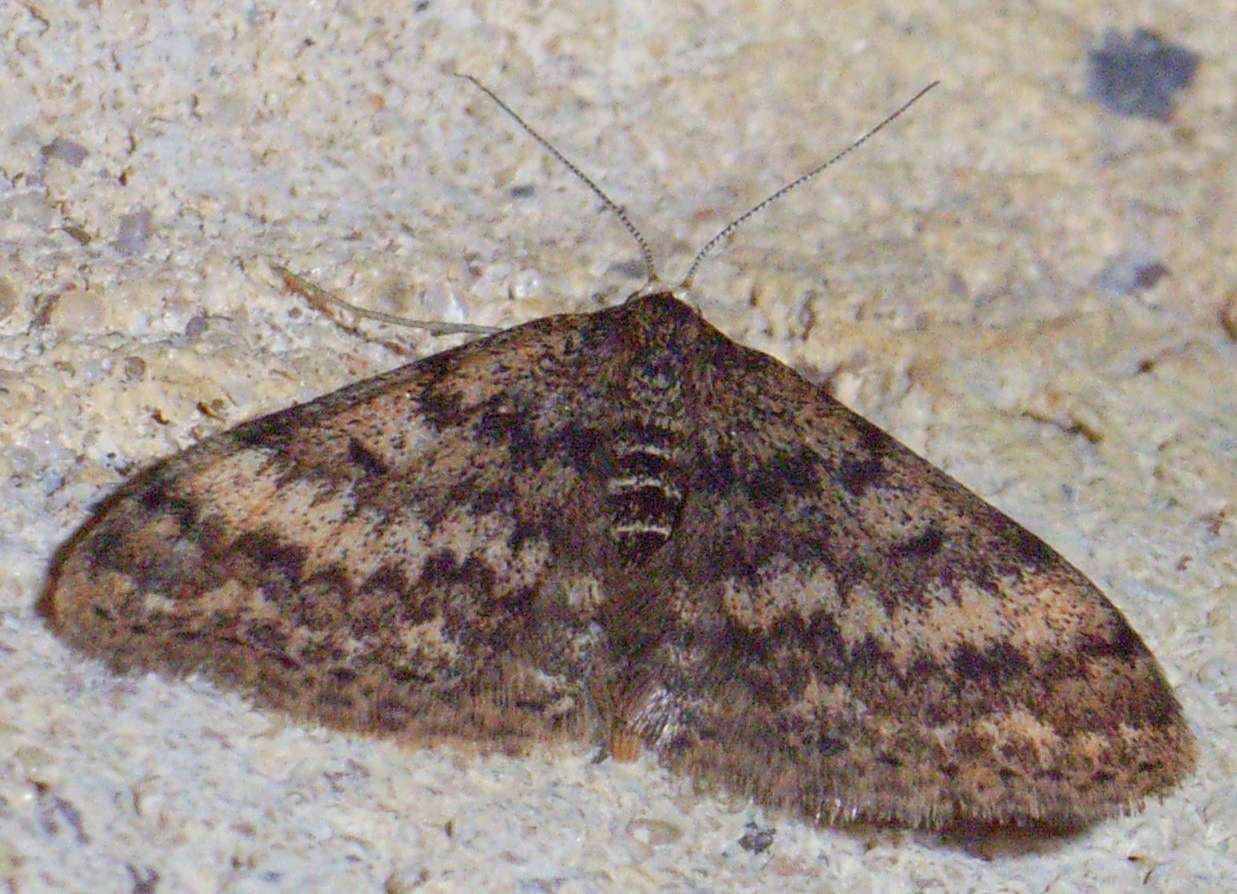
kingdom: Animalia
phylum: Arthropoda
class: Insecta
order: Lepidoptera
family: Geometridae
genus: Scopula
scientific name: Scopula rubraria
